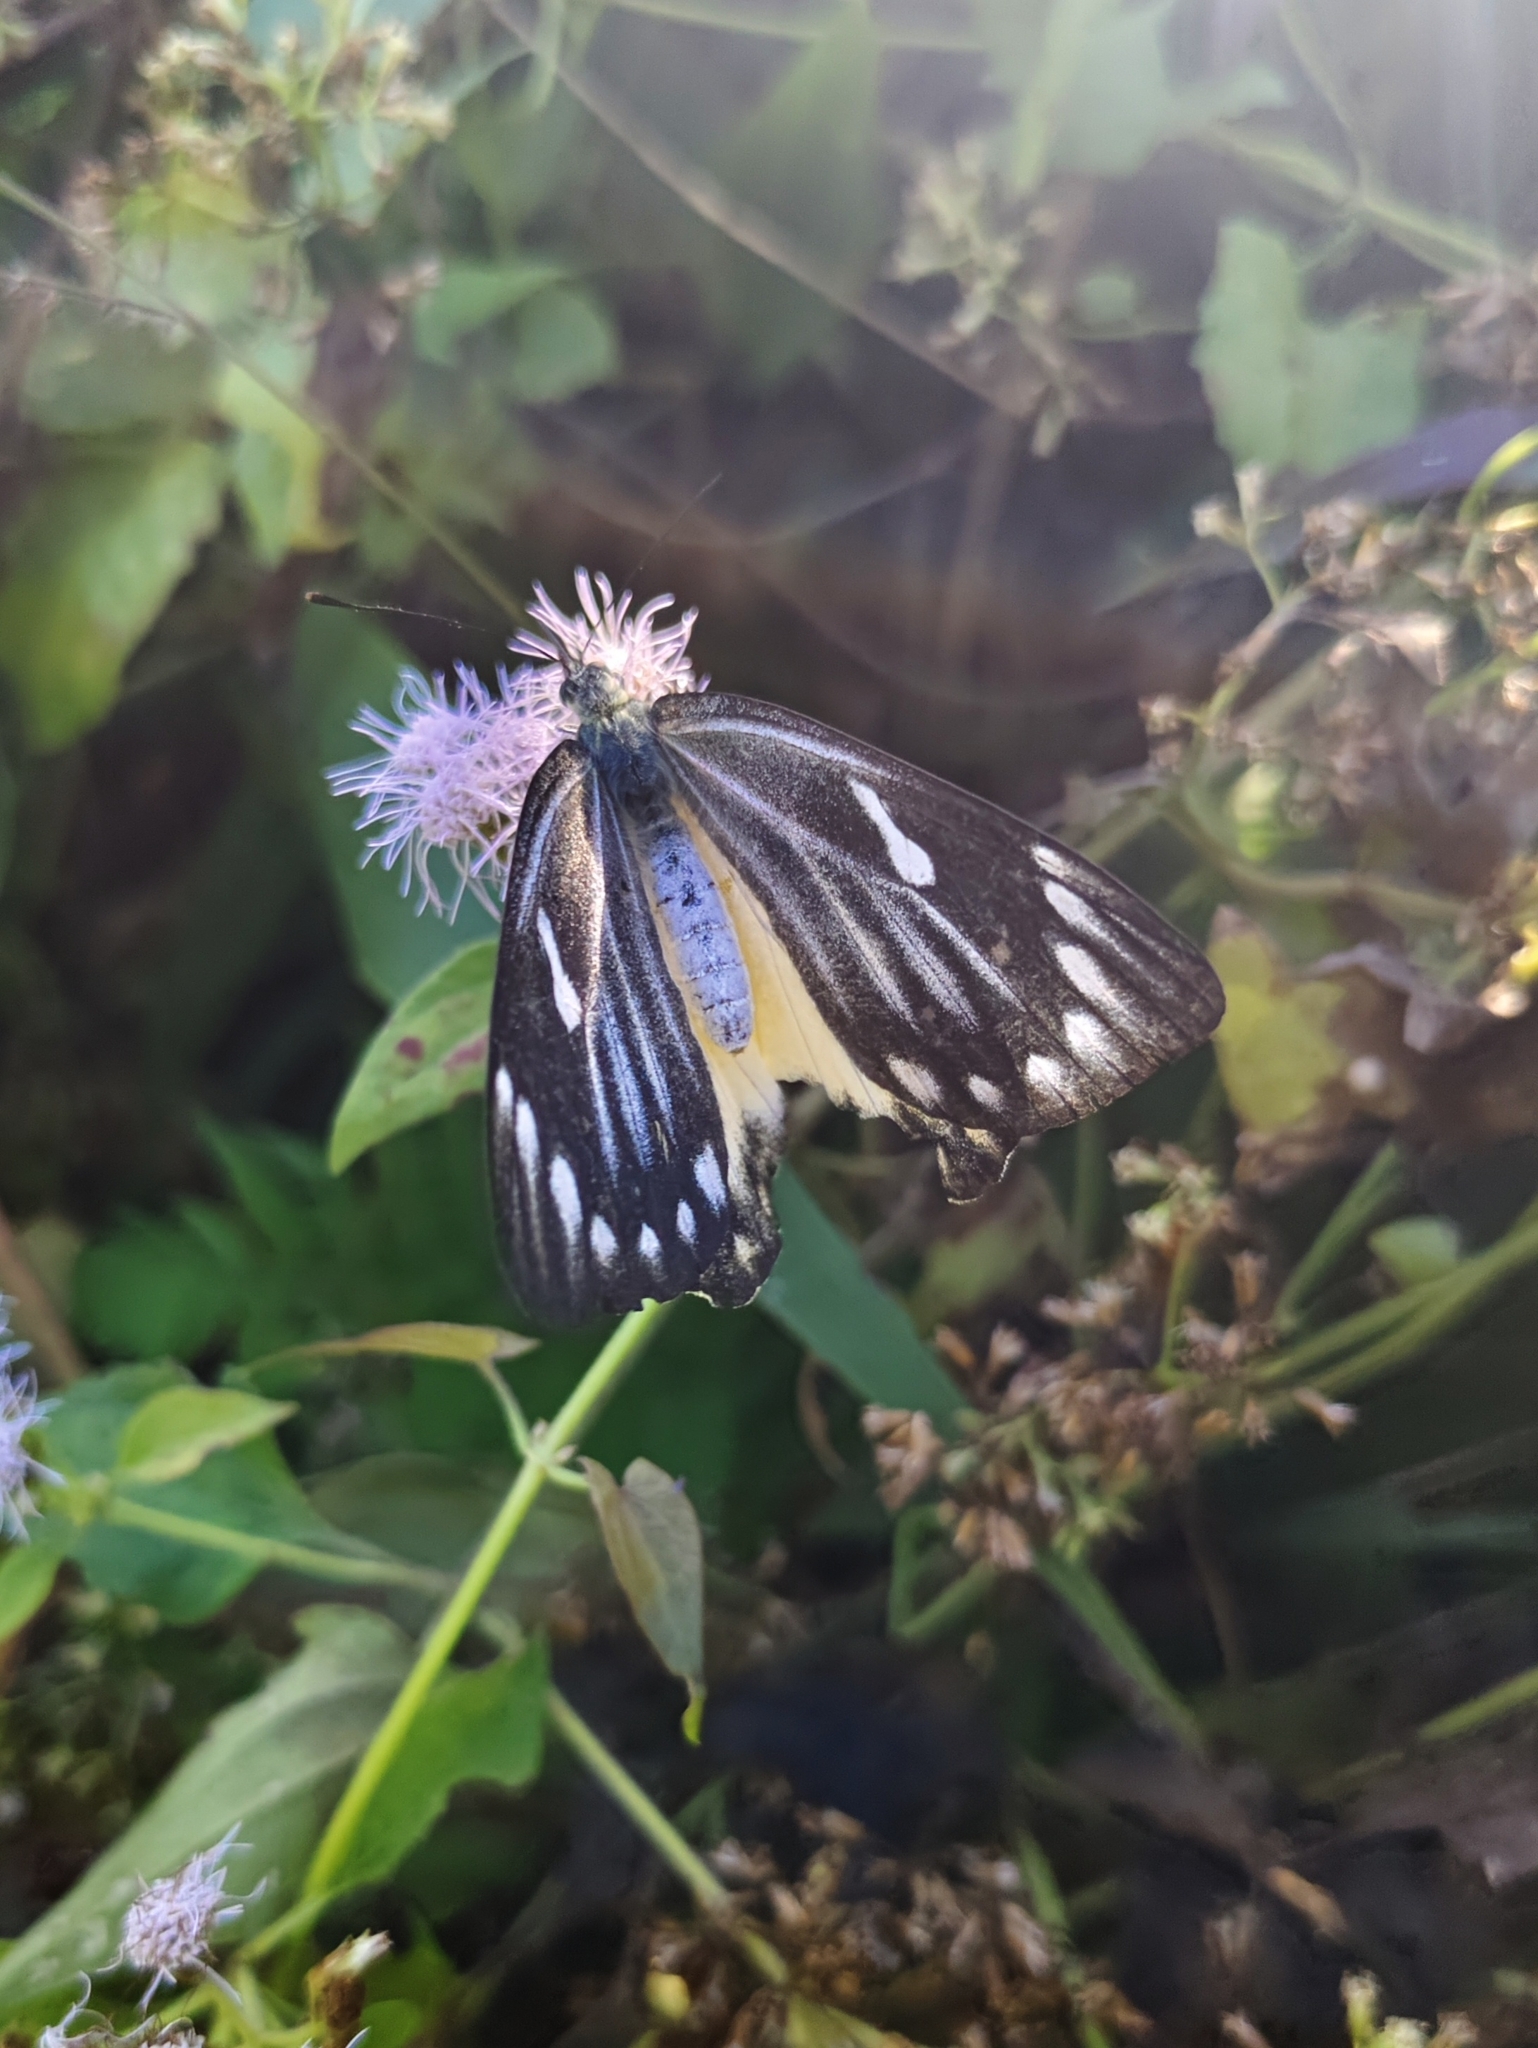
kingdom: Animalia
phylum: Arthropoda
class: Insecta
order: Lepidoptera
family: Pieridae
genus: Delias
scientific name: Delias descombesi
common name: Red-spot jezebel
